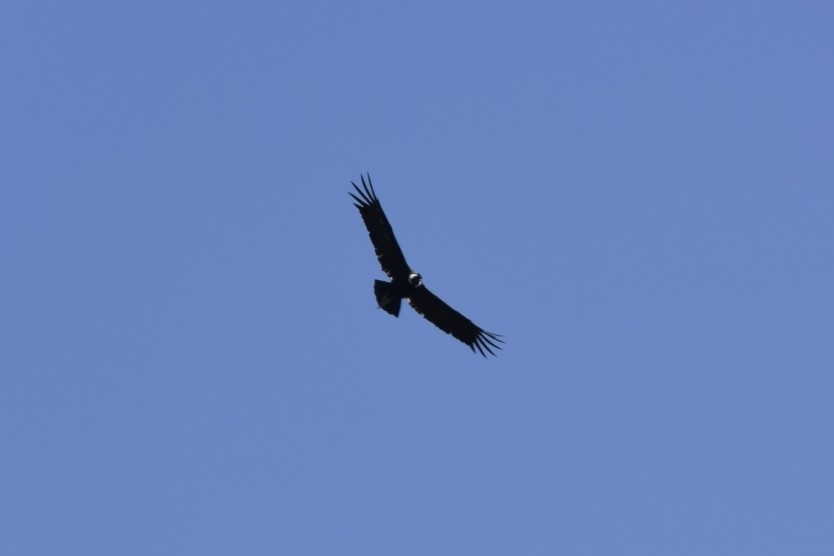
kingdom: Animalia
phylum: Chordata
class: Aves
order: Accipitriformes
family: Cathartidae
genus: Vultur
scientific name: Vultur gryphus
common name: Andean condor
